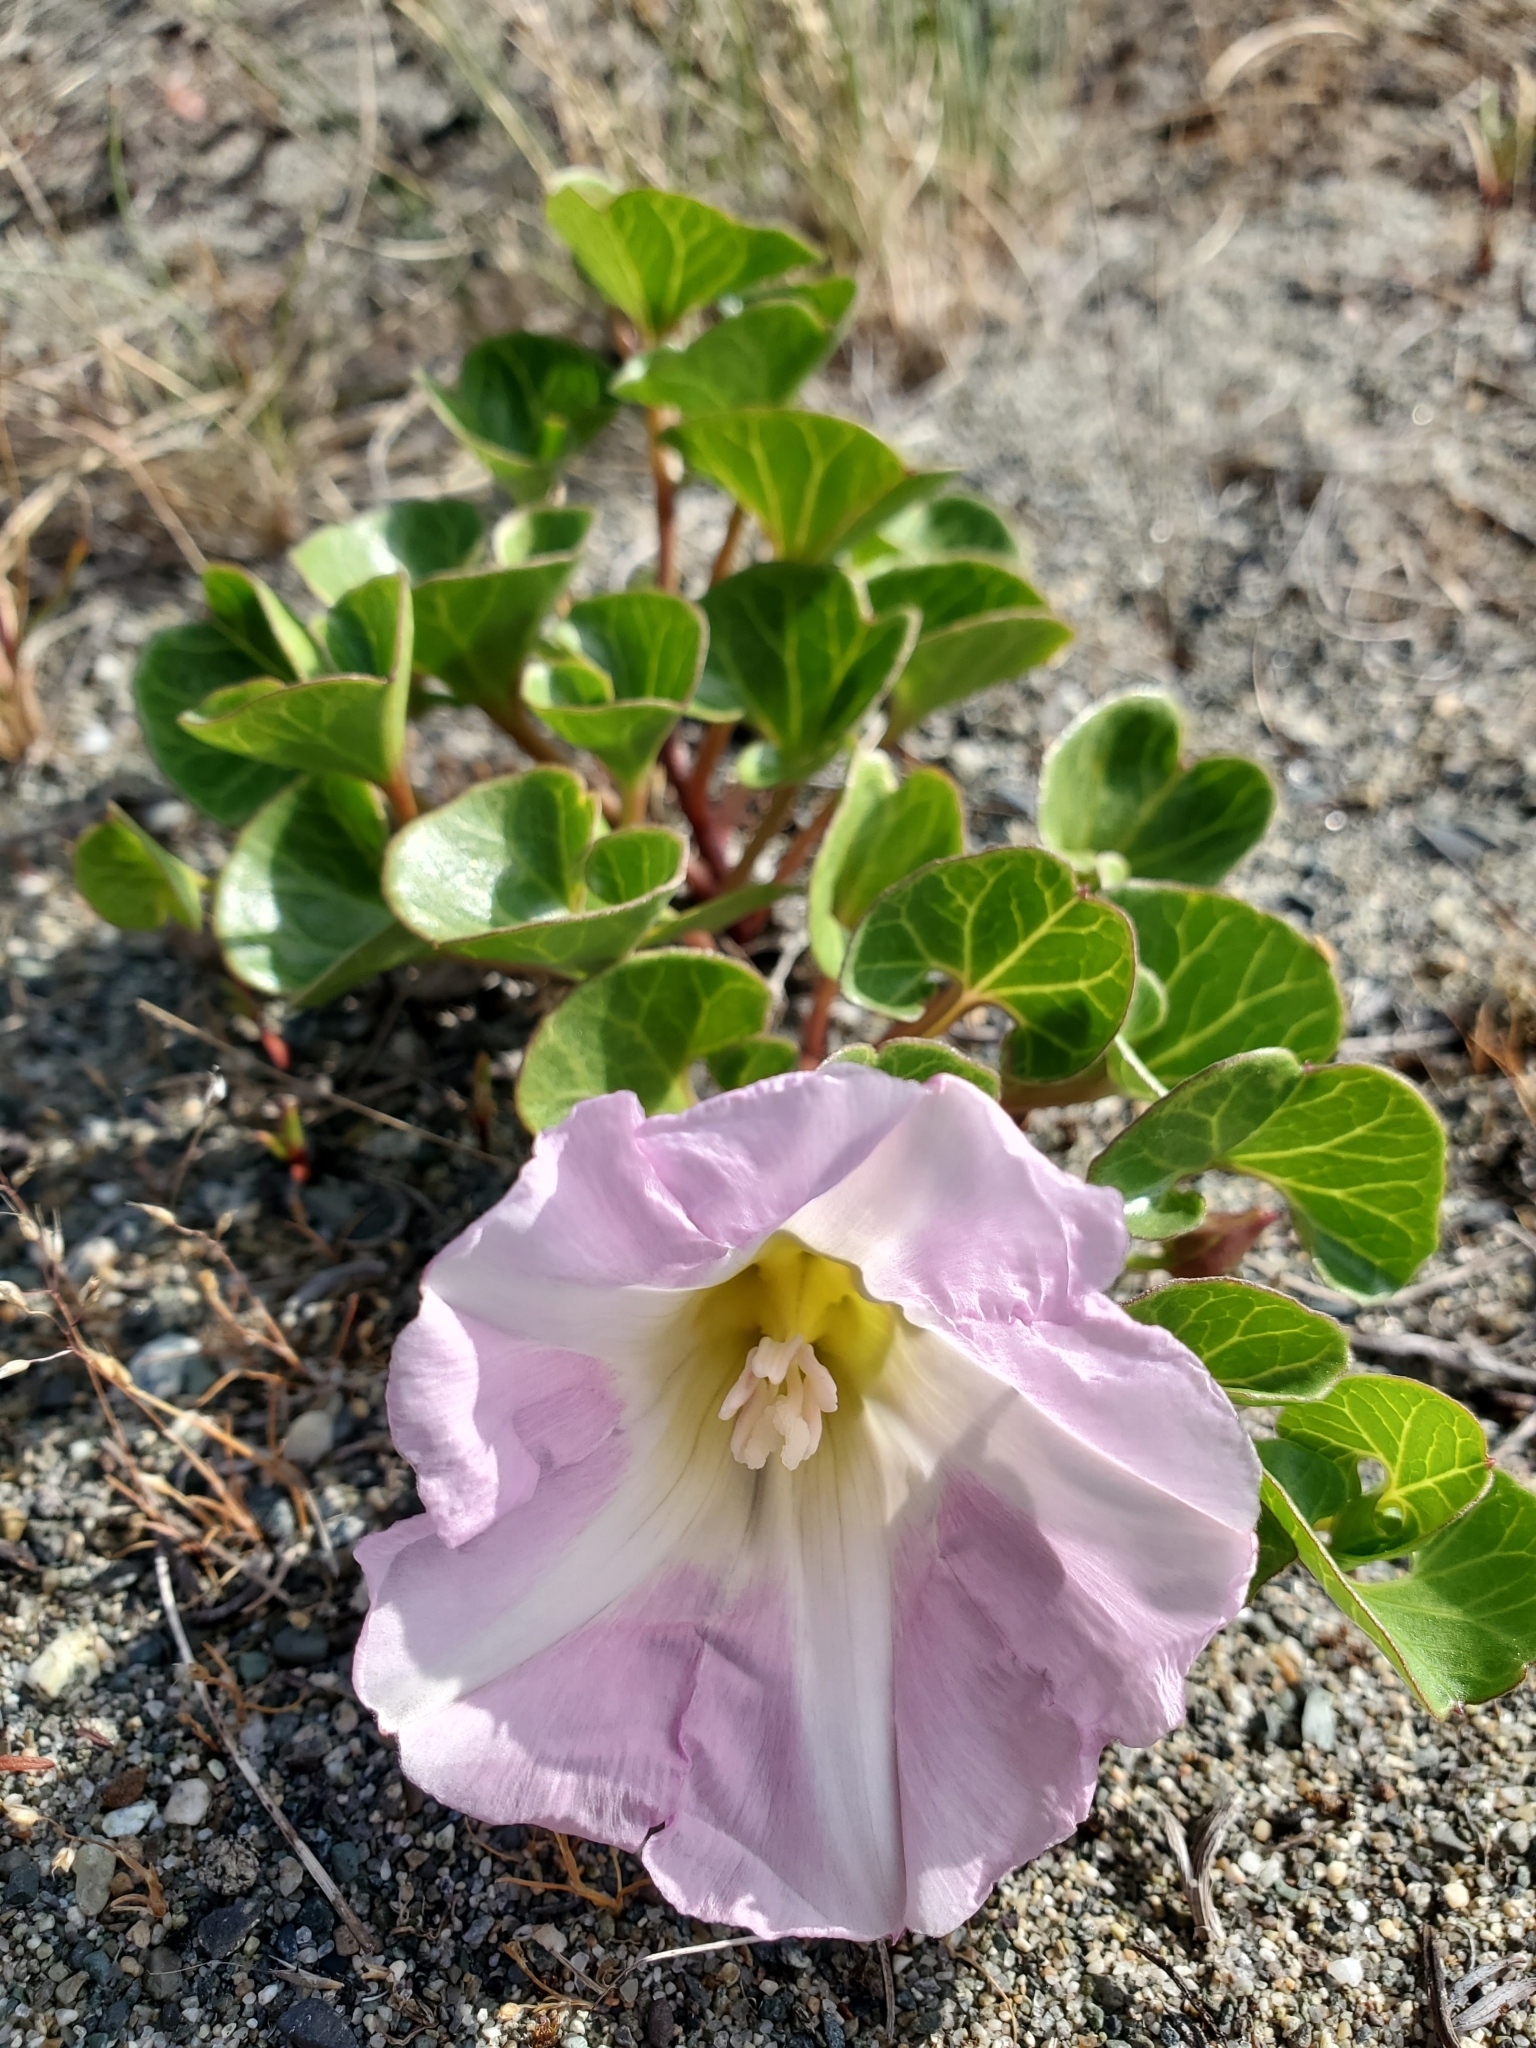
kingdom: Plantae
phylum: Tracheophyta
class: Magnoliopsida
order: Solanales
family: Convolvulaceae
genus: Calystegia
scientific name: Calystegia soldanella
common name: Sea bindweed
